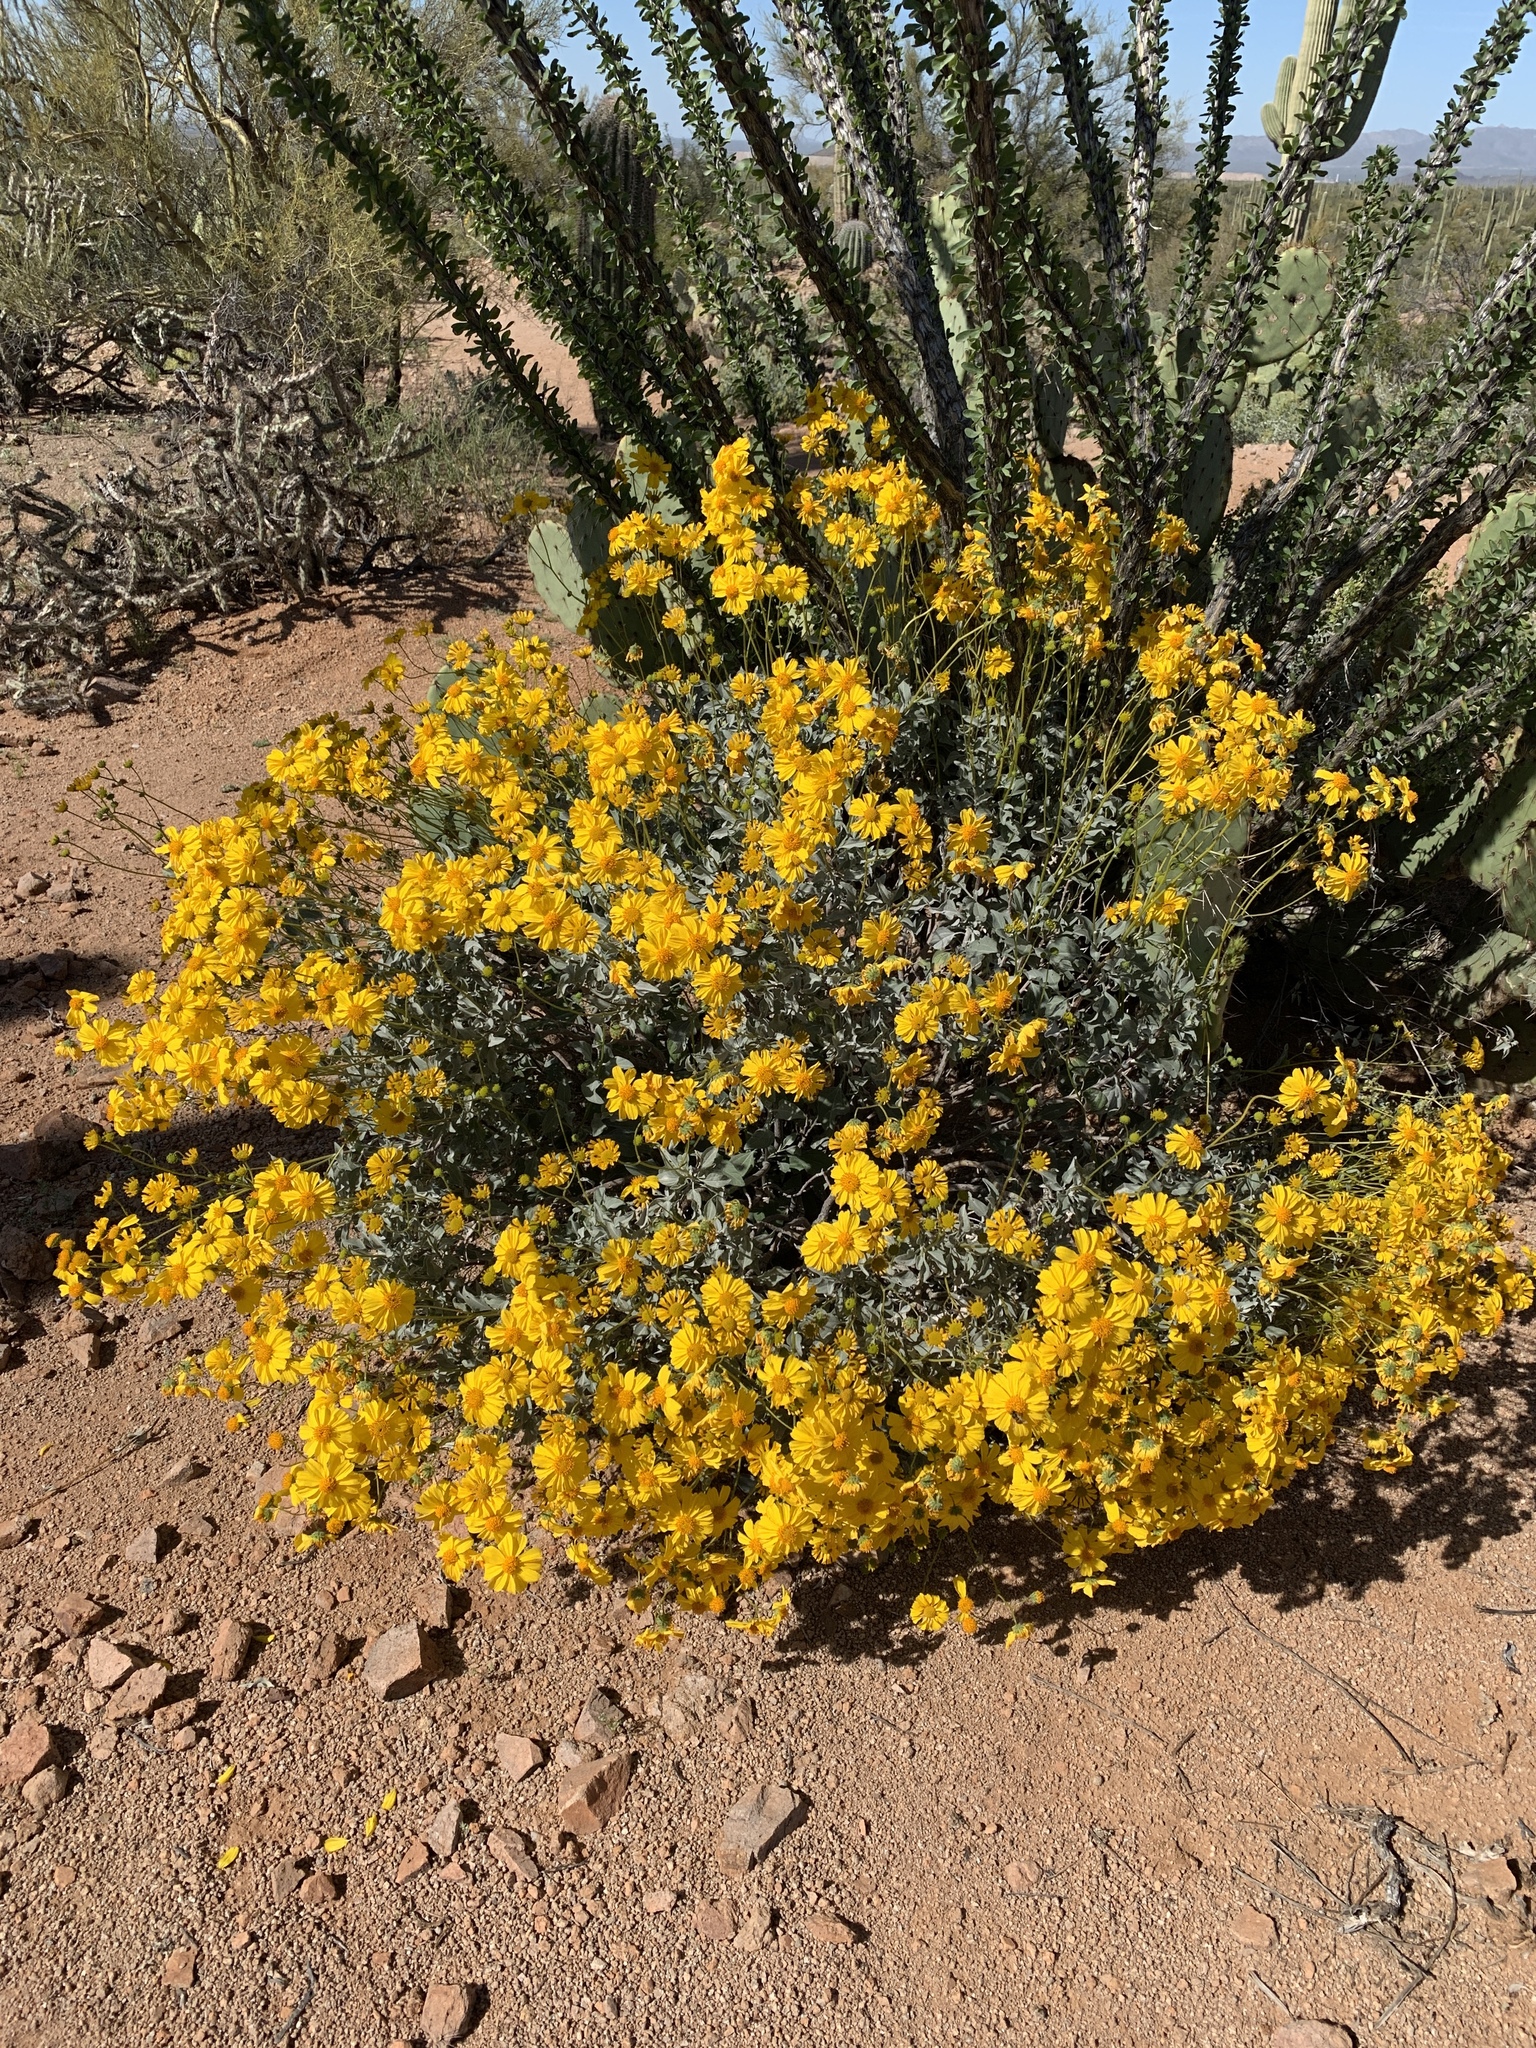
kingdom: Plantae
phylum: Tracheophyta
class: Magnoliopsida
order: Asterales
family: Asteraceae
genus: Encelia
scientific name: Encelia farinosa
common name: Brittlebush
